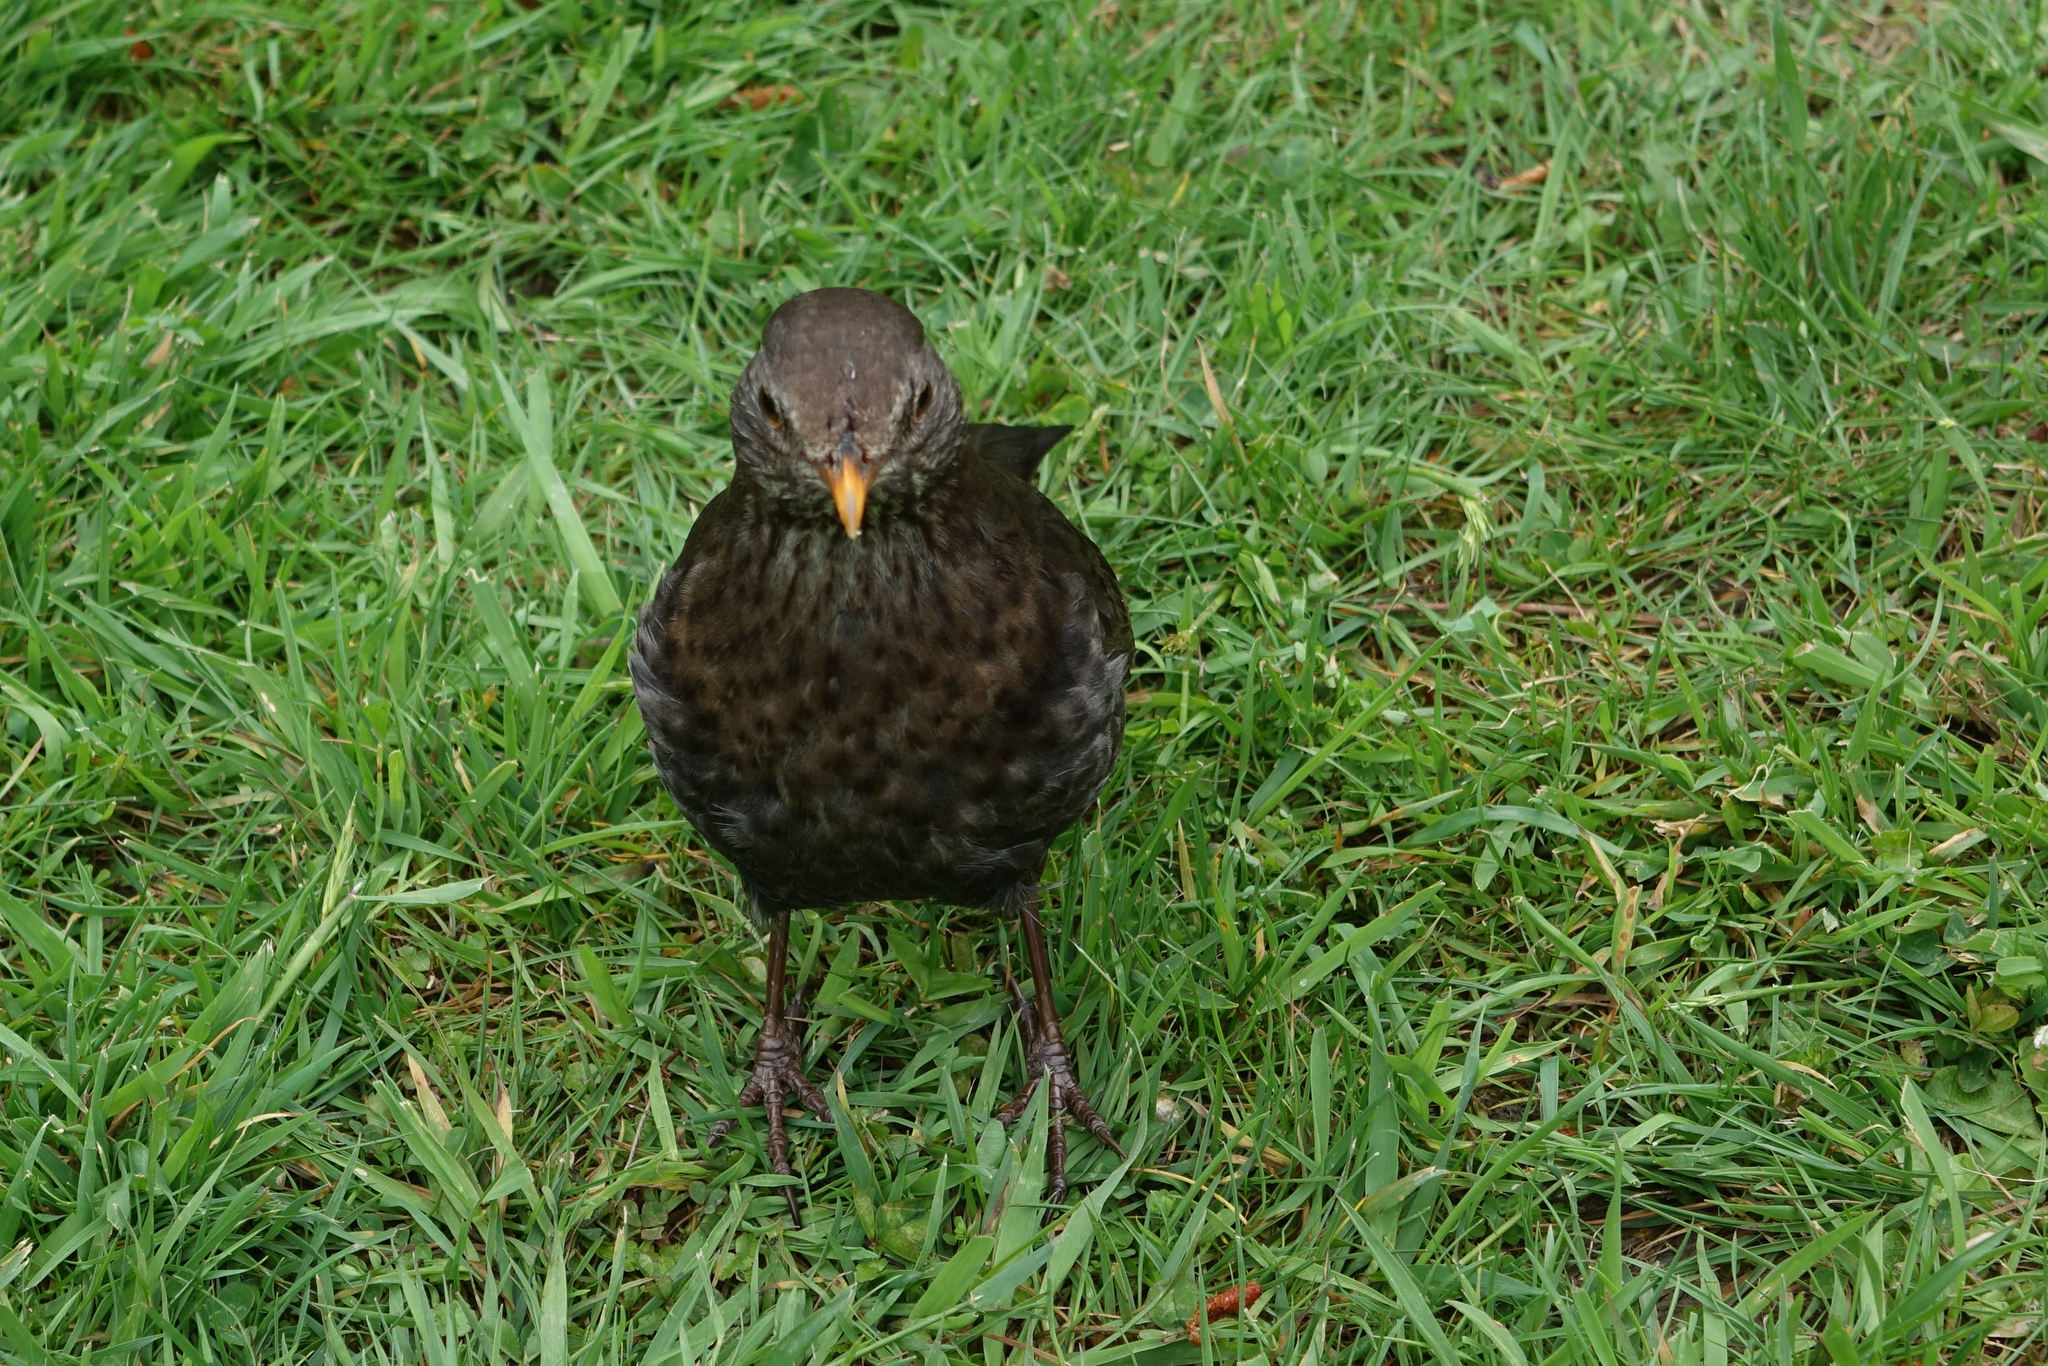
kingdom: Animalia
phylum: Chordata
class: Aves
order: Passeriformes
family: Turdidae
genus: Turdus
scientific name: Turdus merula
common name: Common blackbird
